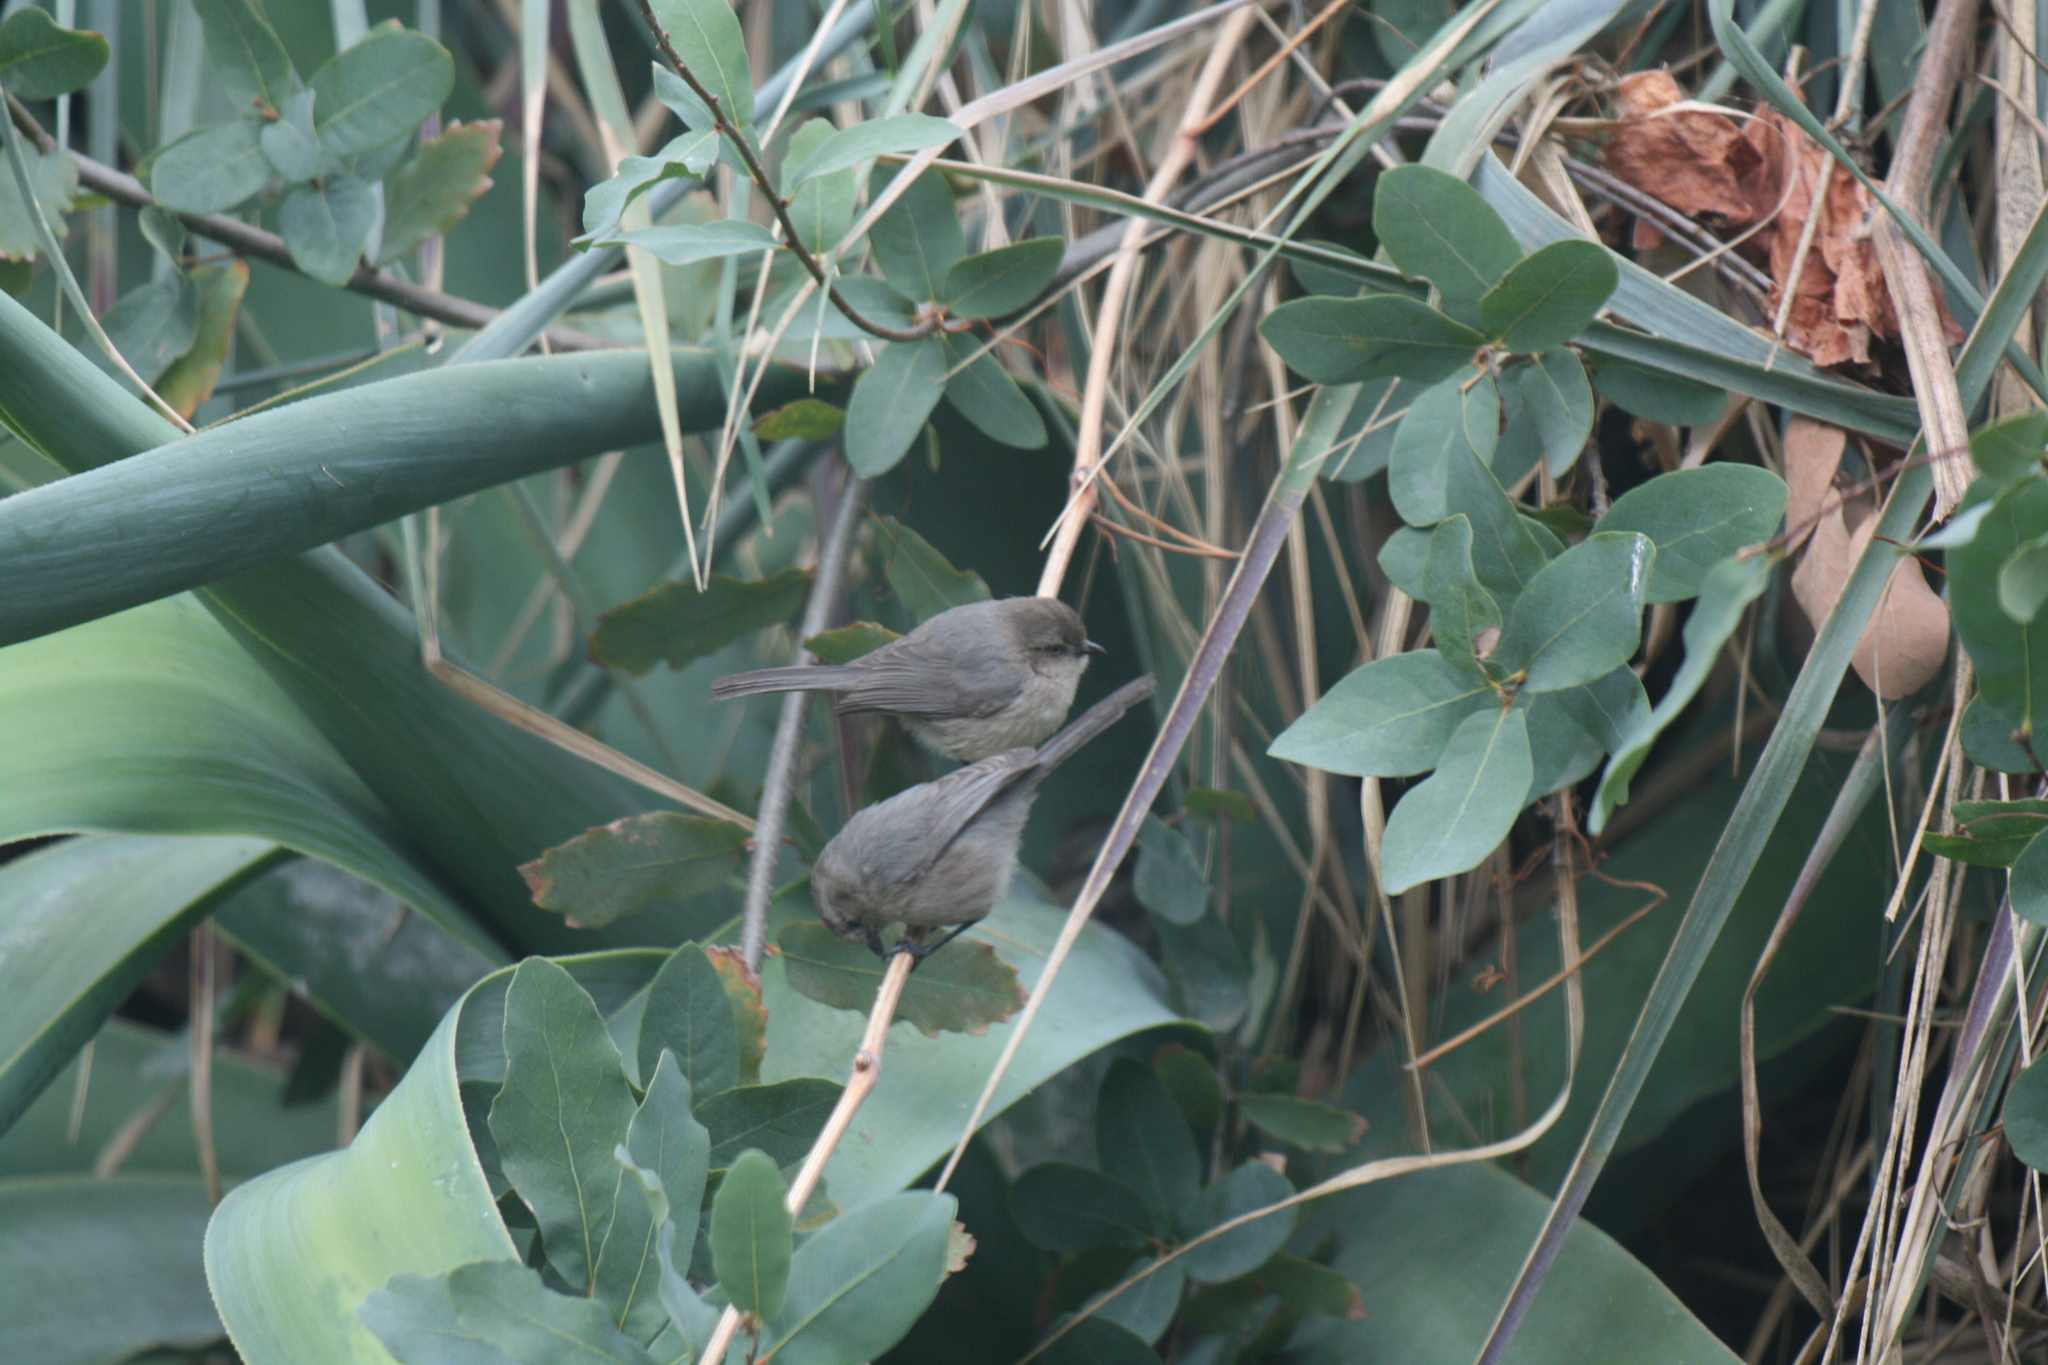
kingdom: Animalia
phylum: Chordata
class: Aves
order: Passeriformes
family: Aegithalidae
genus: Psaltriparus
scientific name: Psaltriparus minimus
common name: American bushtit
